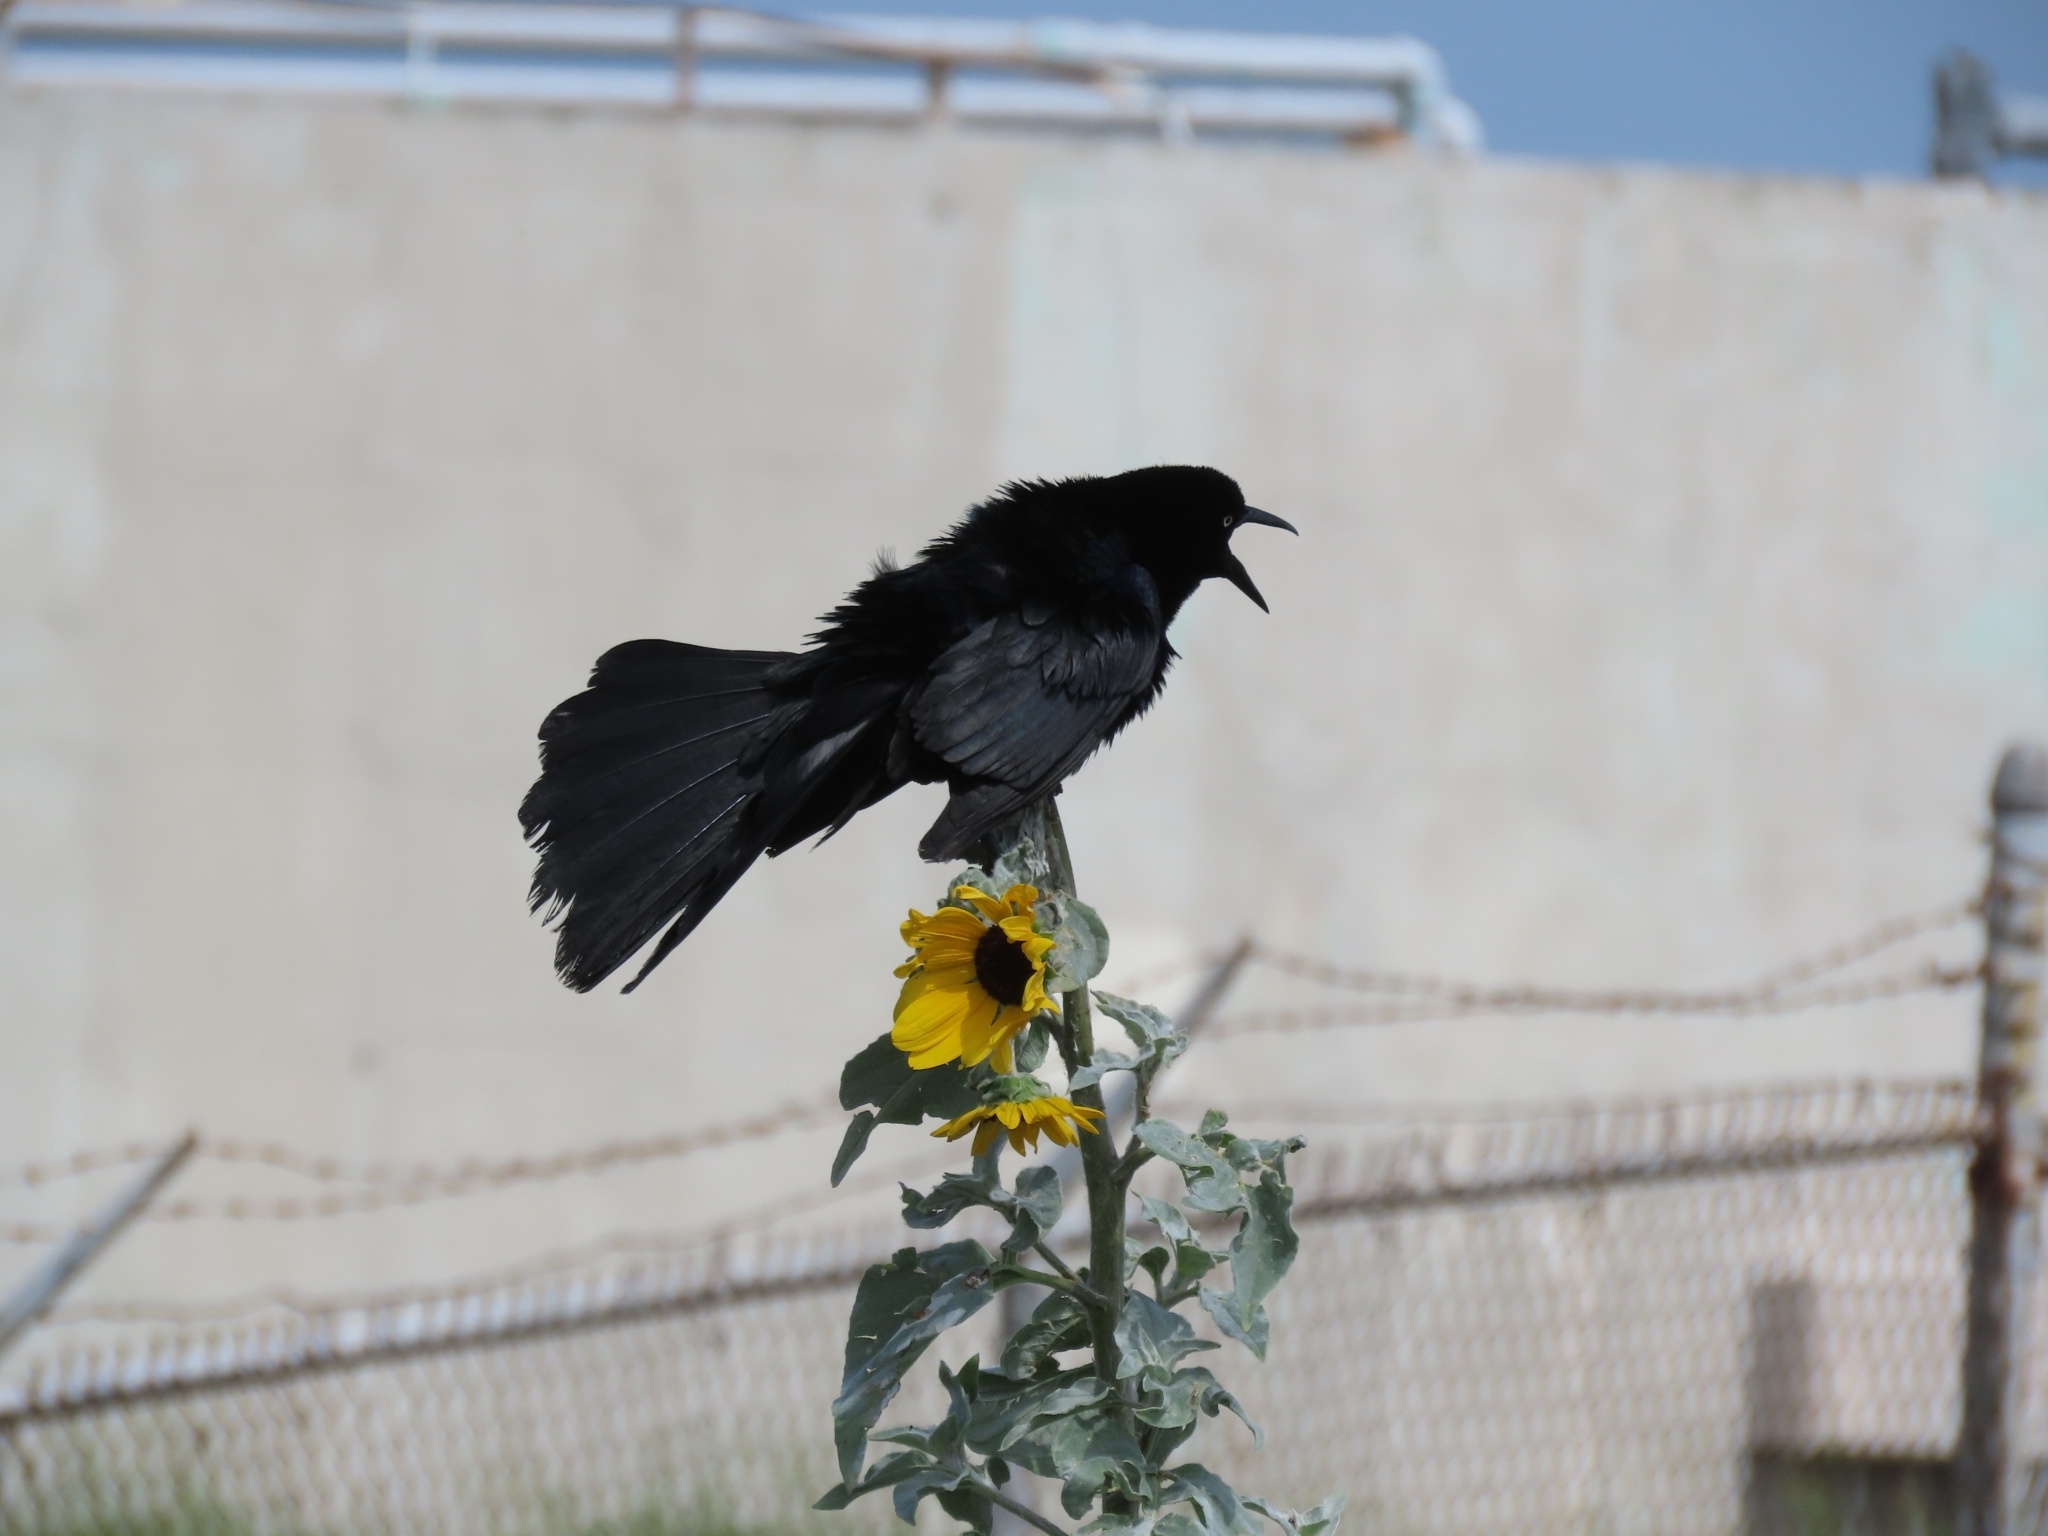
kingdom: Animalia
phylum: Chordata
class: Aves
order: Passeriformes
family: Icteridae
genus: Quiscalus
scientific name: Quiscalus mexicanus
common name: Great-tailed grackle
